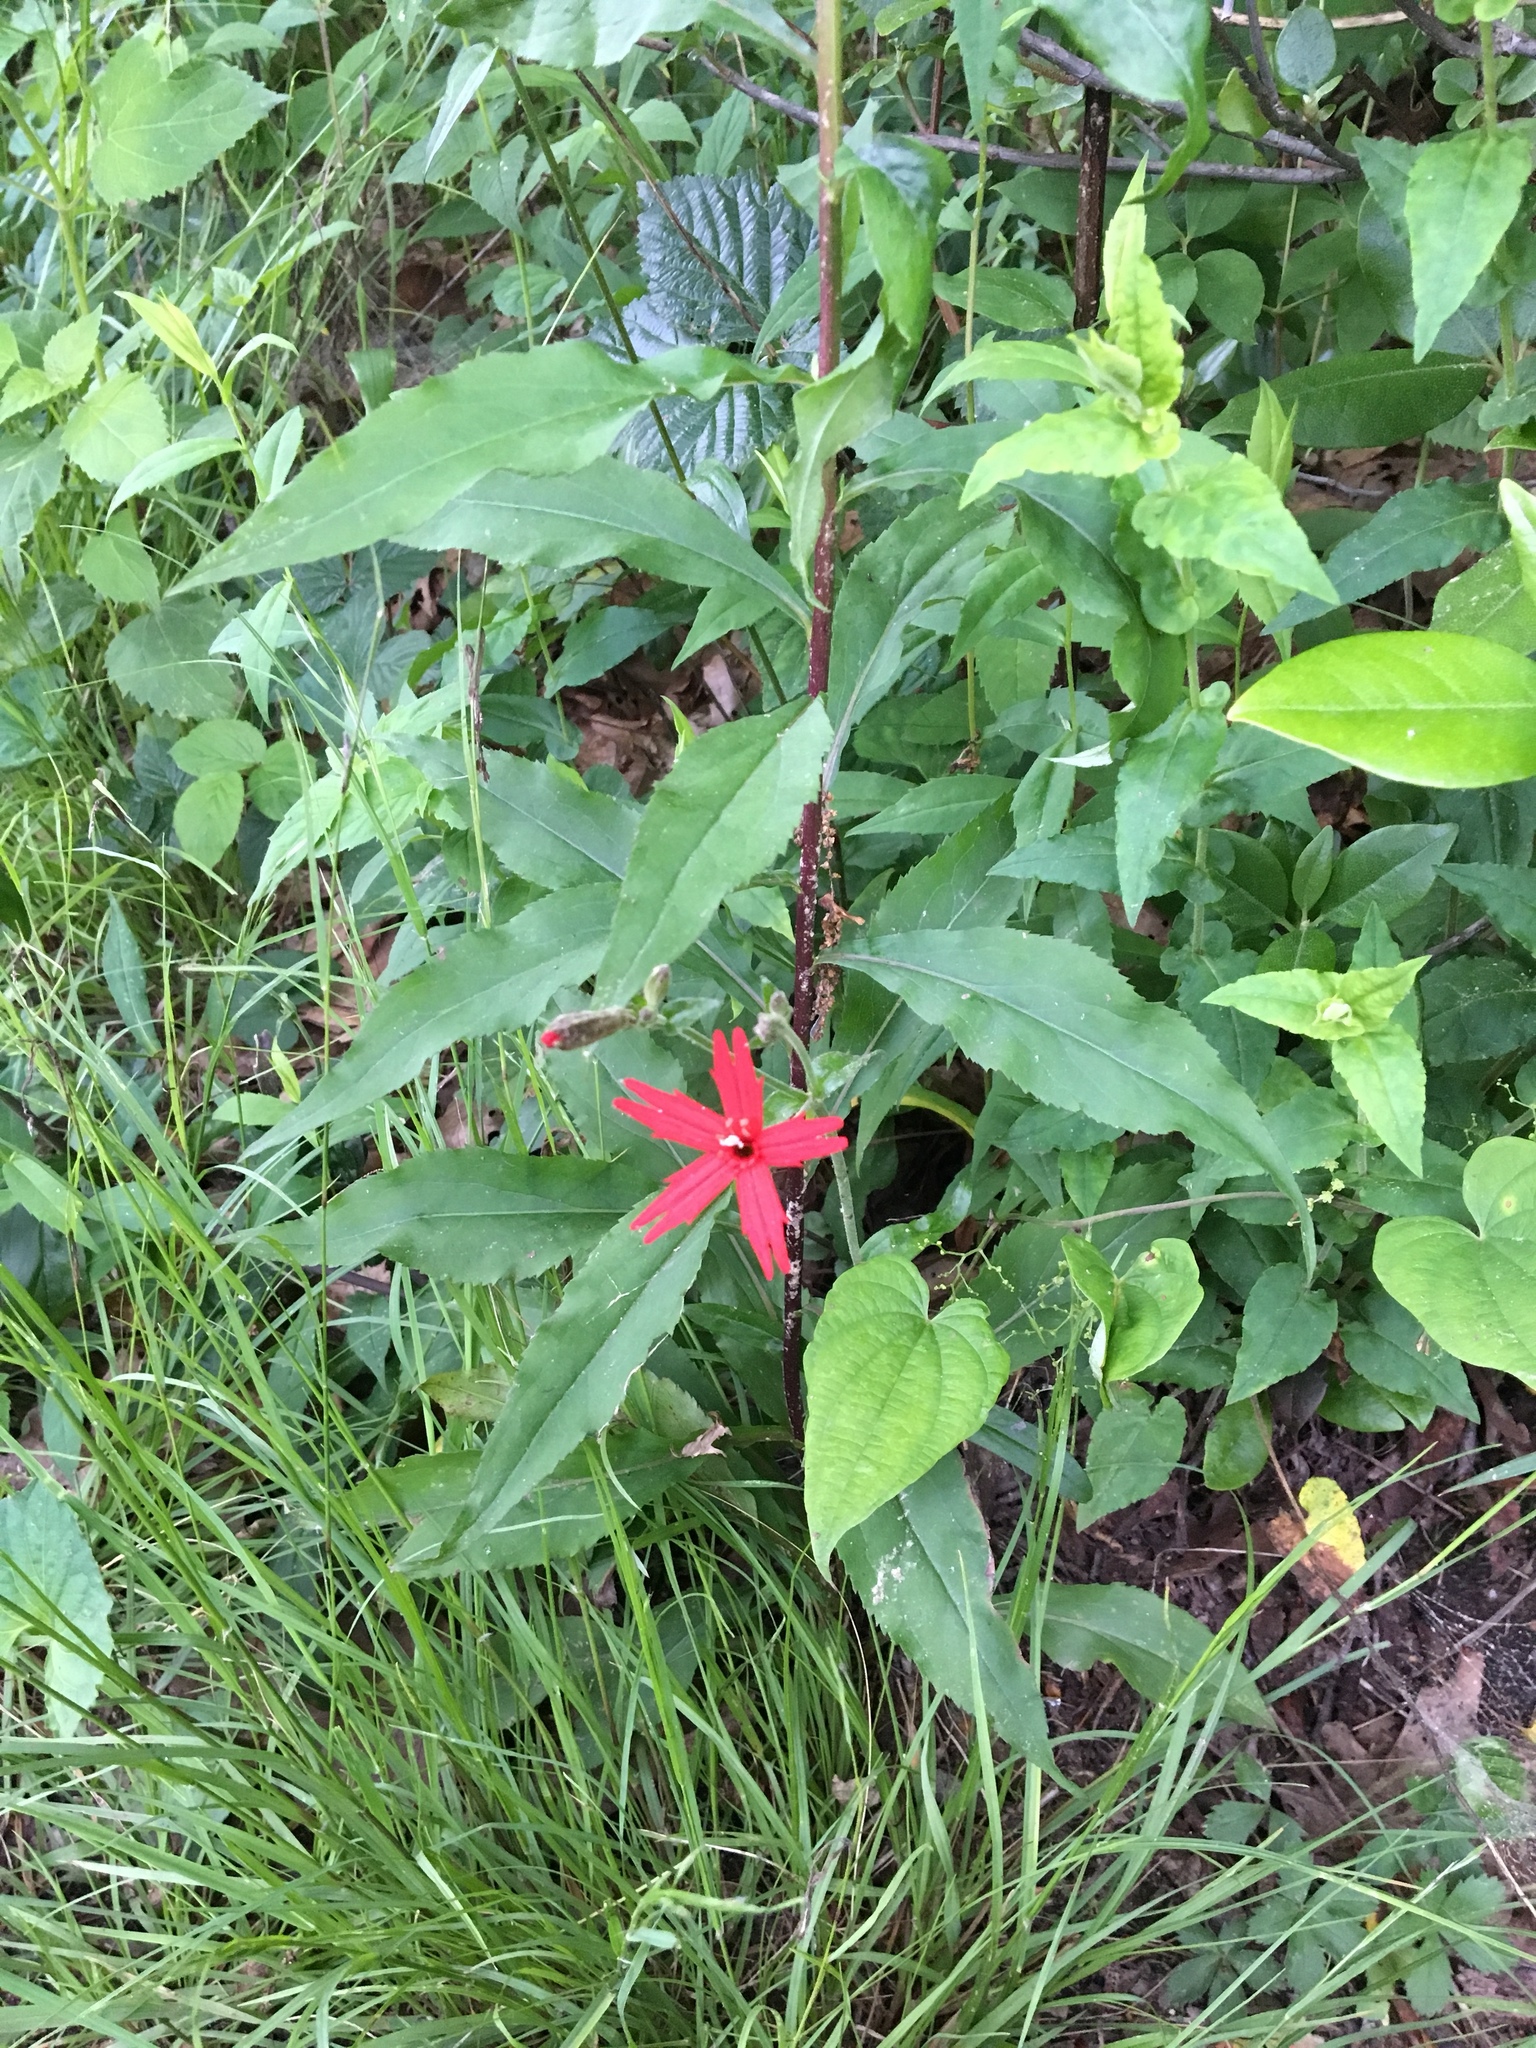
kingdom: Plantae
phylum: Tracheophyta
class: Magnoliopsida
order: Caryophyllales
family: Caryophyllaceae
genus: Silene
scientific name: Silene virginica
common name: Fire-pink
